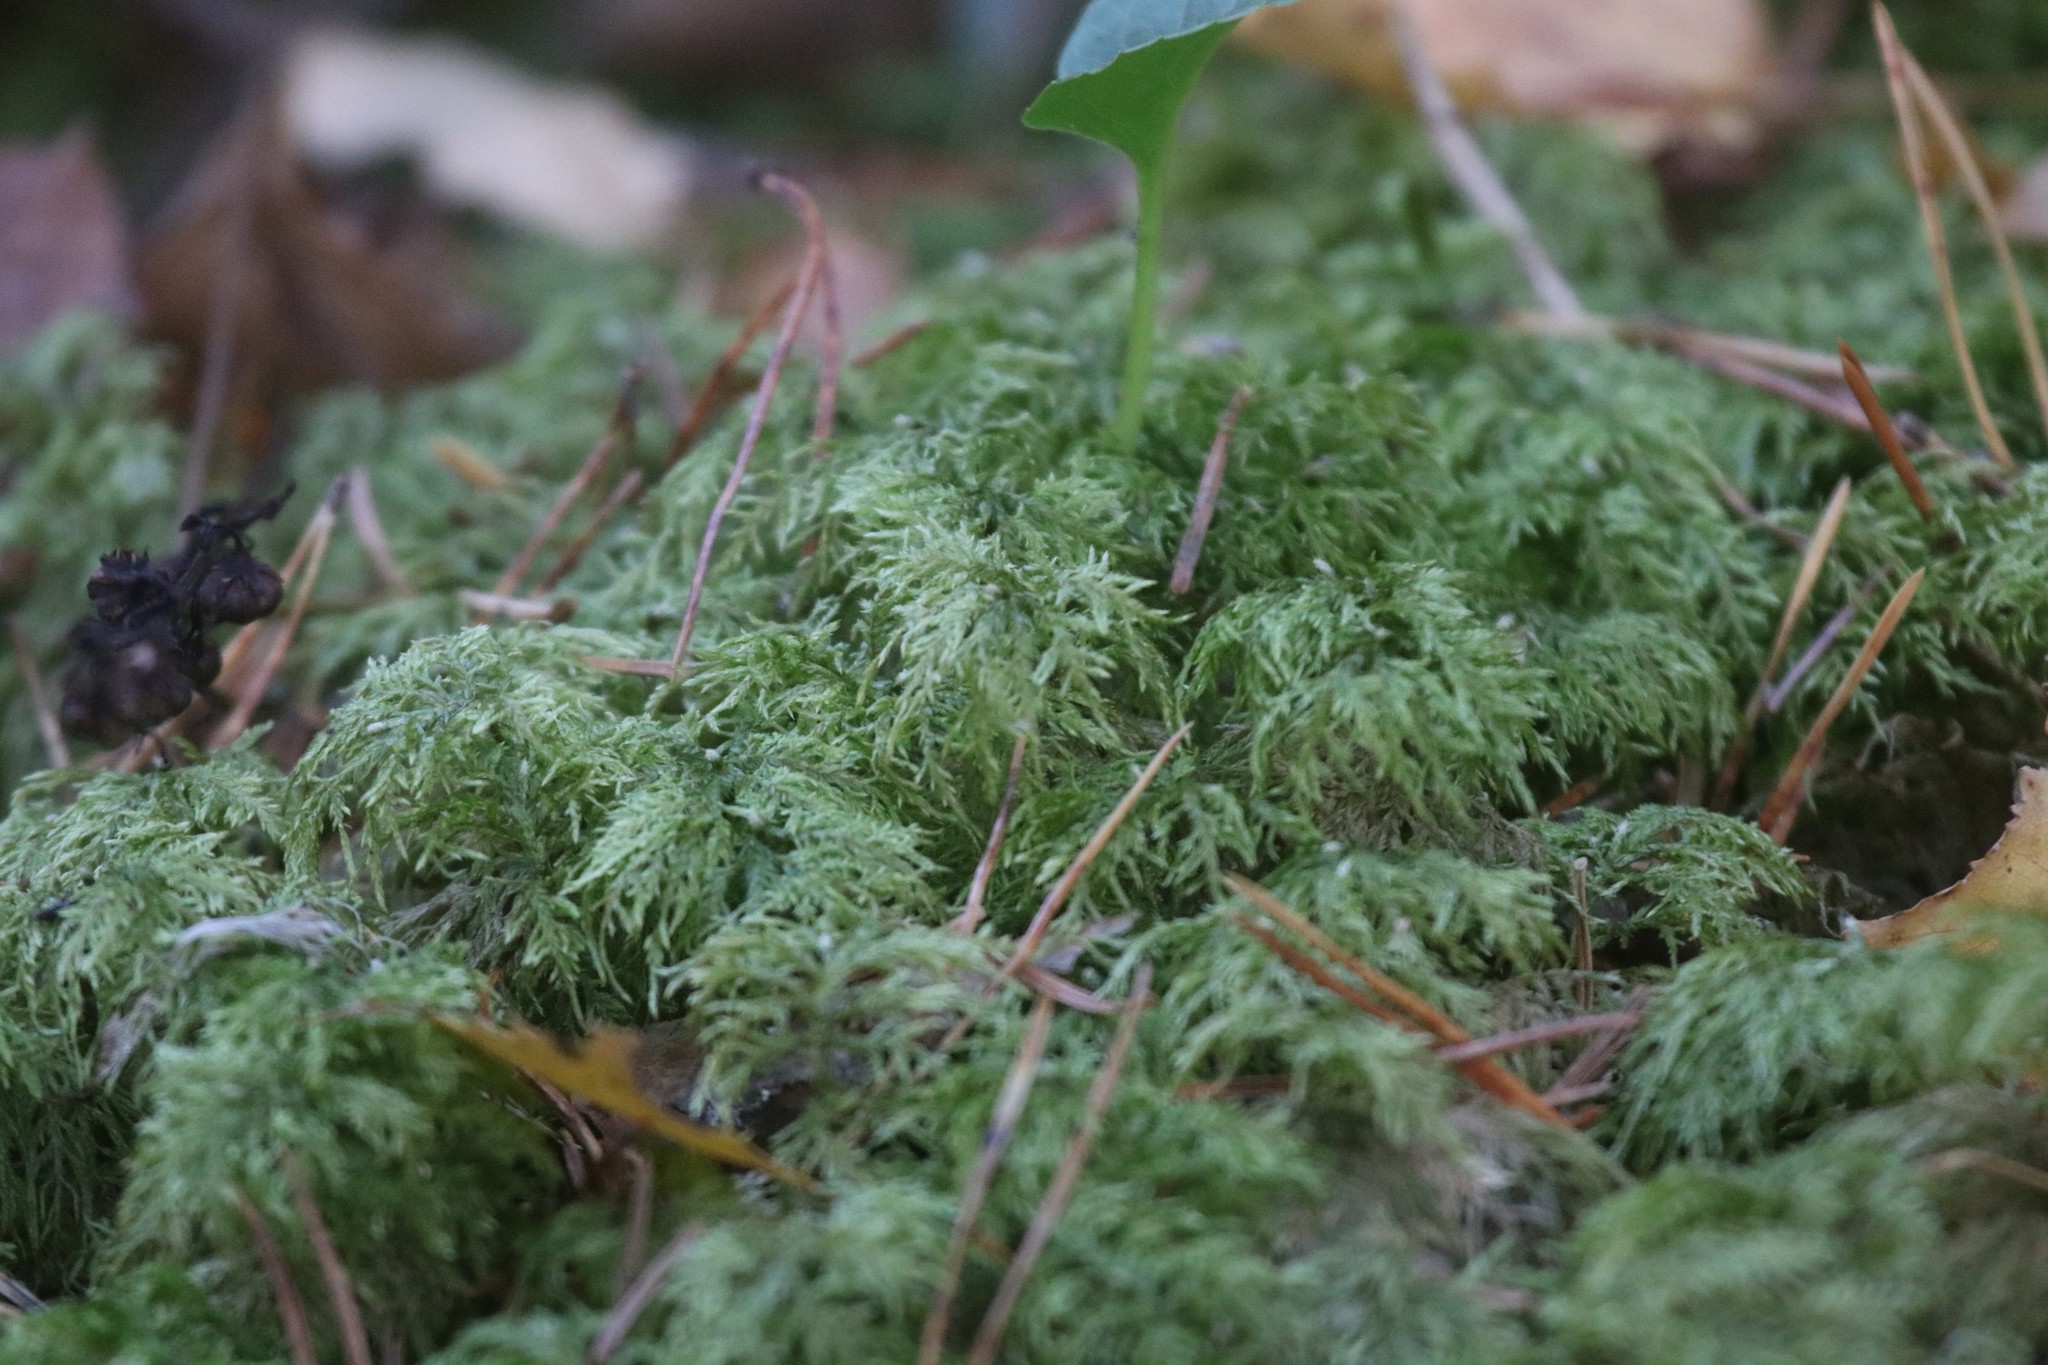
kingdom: Plantae
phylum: Bryophyta
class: Bryopsida
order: Hypnales
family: Hylocomiaceae
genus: Hylocomium
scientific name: Hylocomium splendens
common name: Stairstep moss
